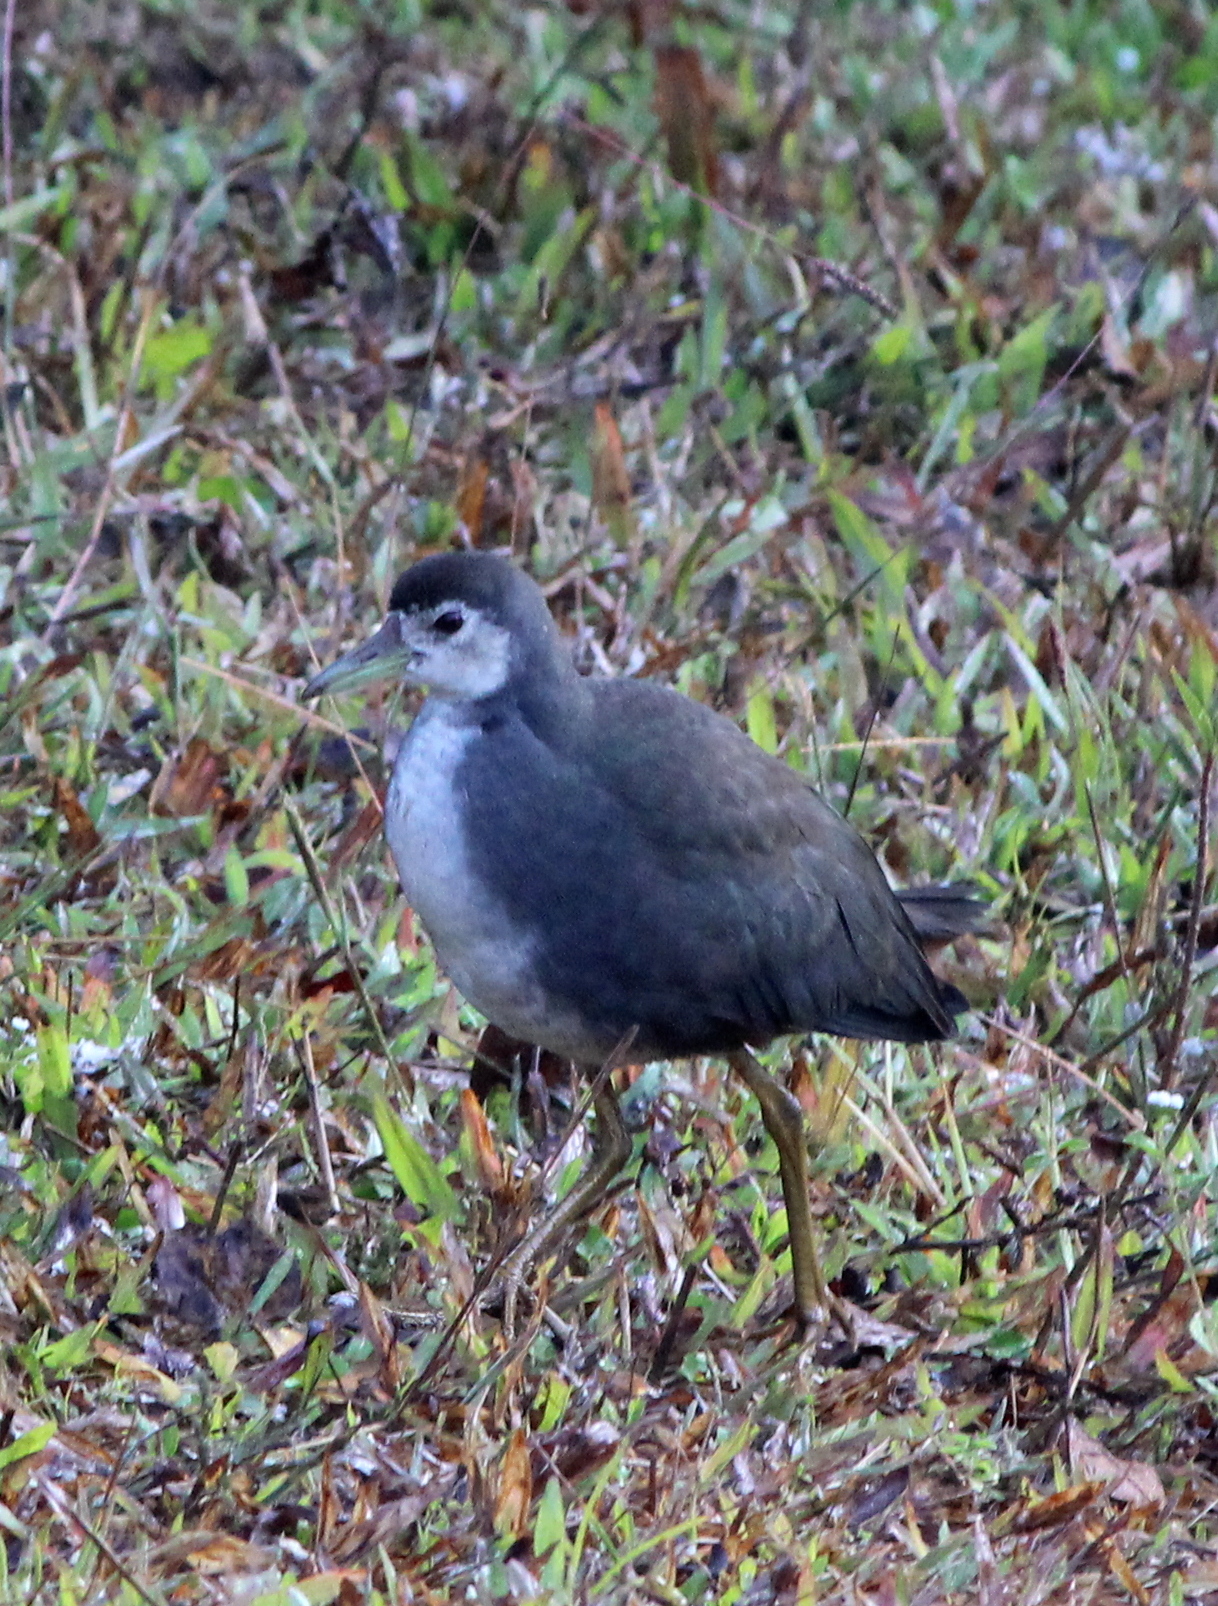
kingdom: Animalia
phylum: Chordata
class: Aves
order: Gruiformes
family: Rallidae
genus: Amaurornis
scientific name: Amaurornis phoenicurus
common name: White-breasted waterhen
